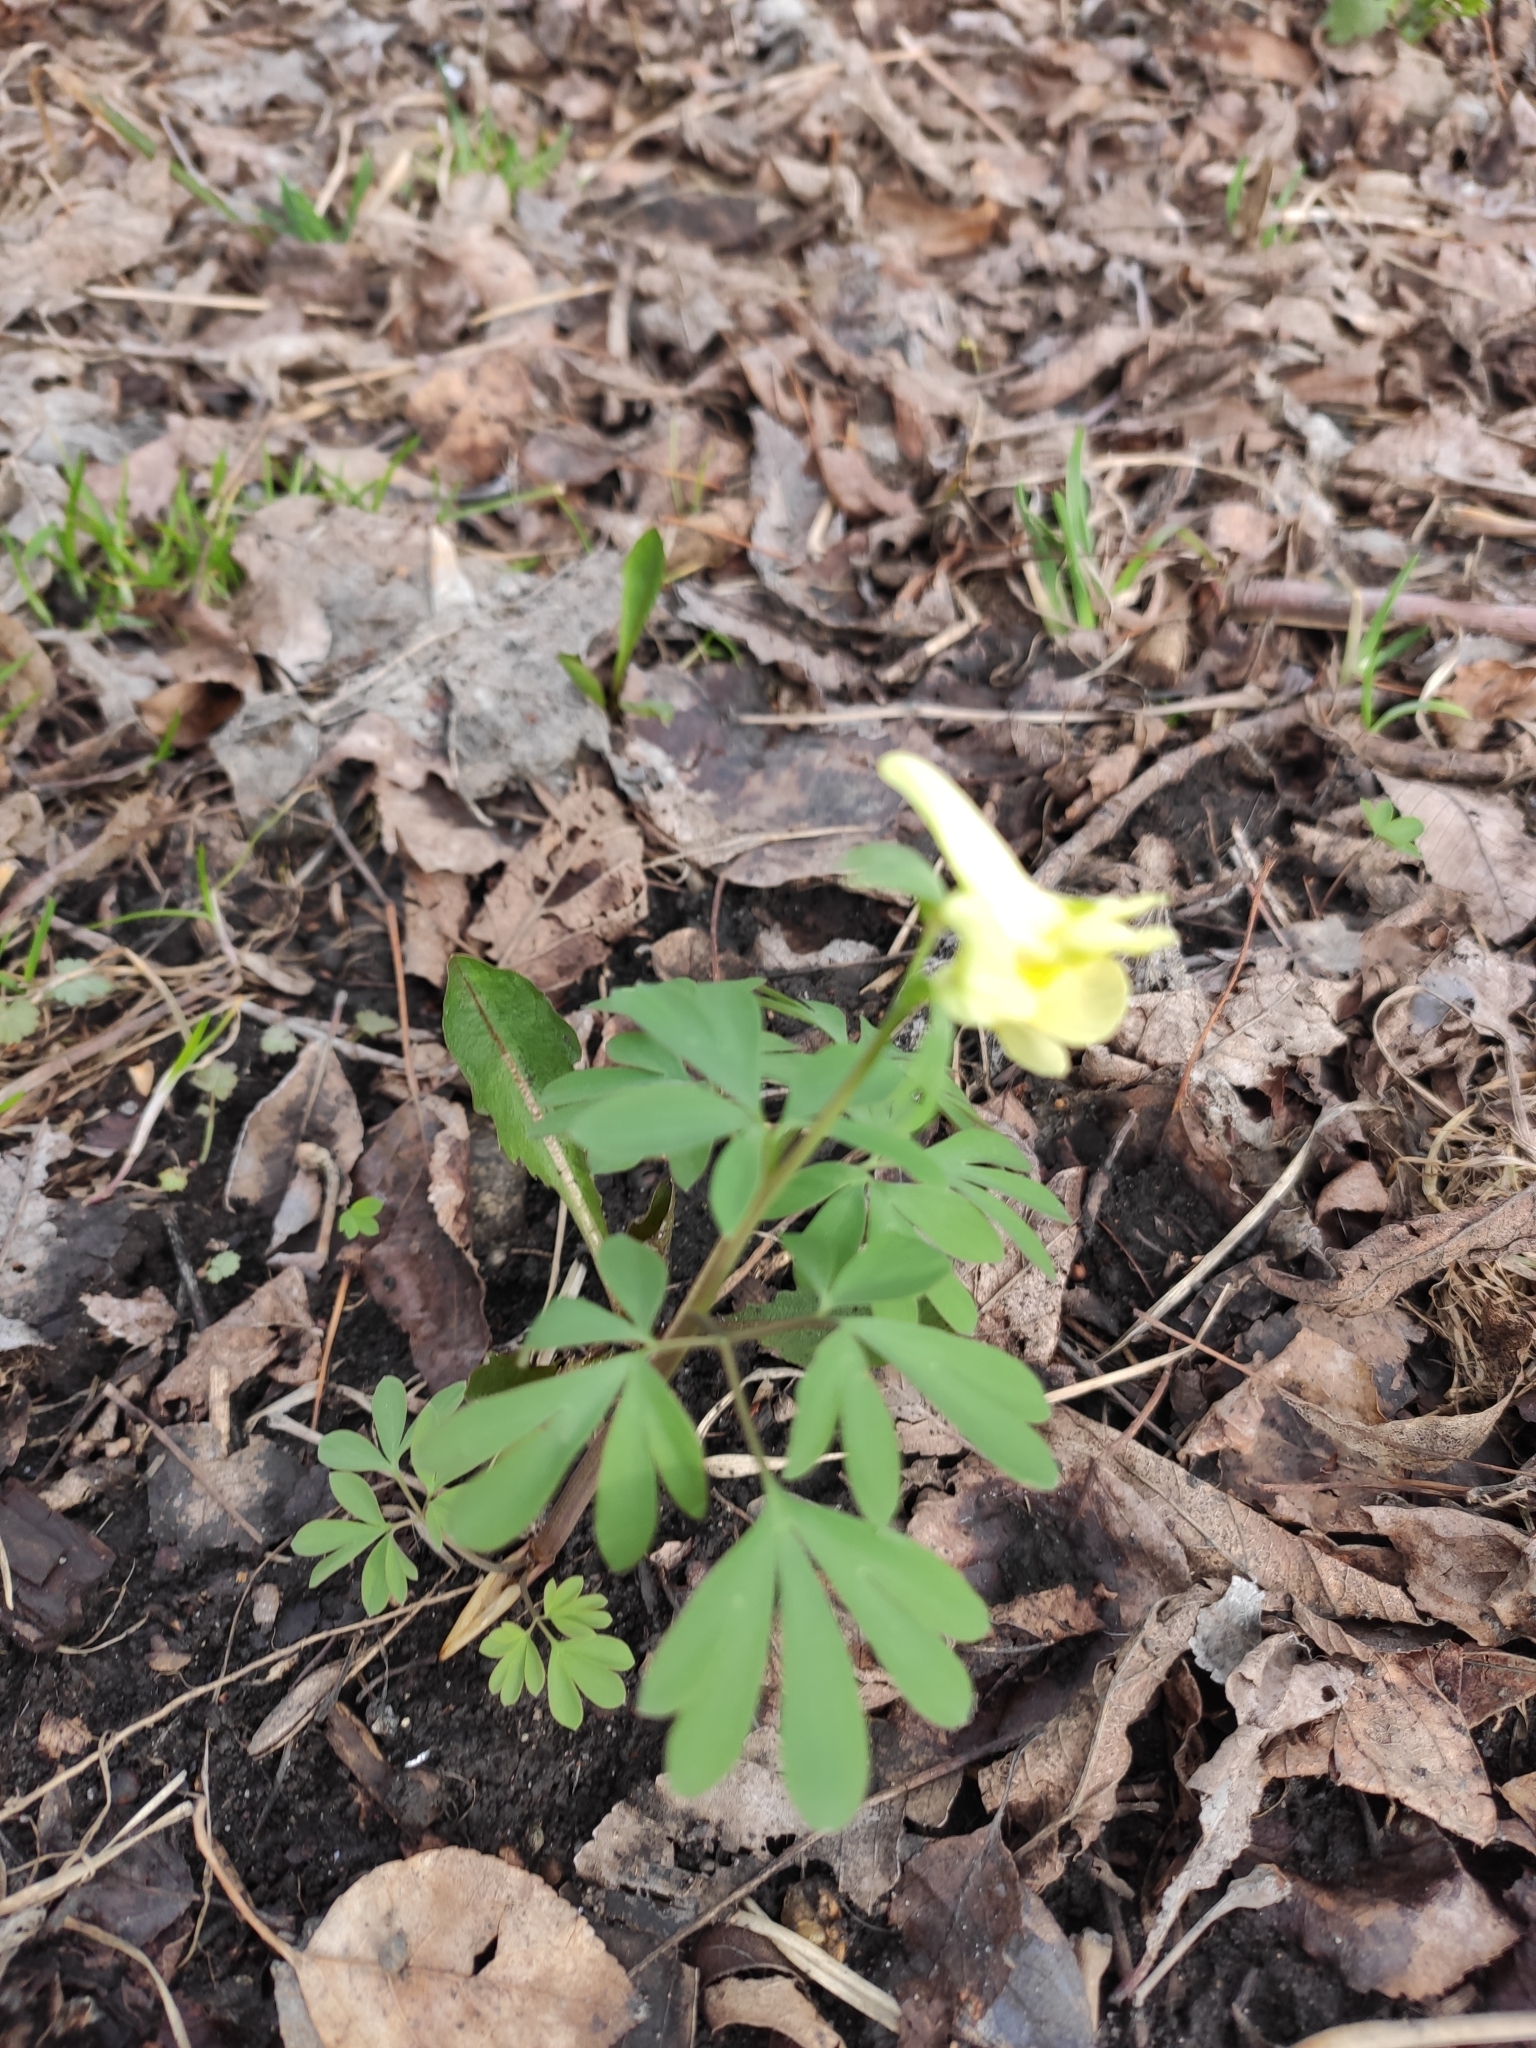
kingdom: Plantae
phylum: Tracheophyta
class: Magnoliopsida
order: Ranunculales
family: Papaveraceae
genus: Corydalis
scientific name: Corydalis bracteata
